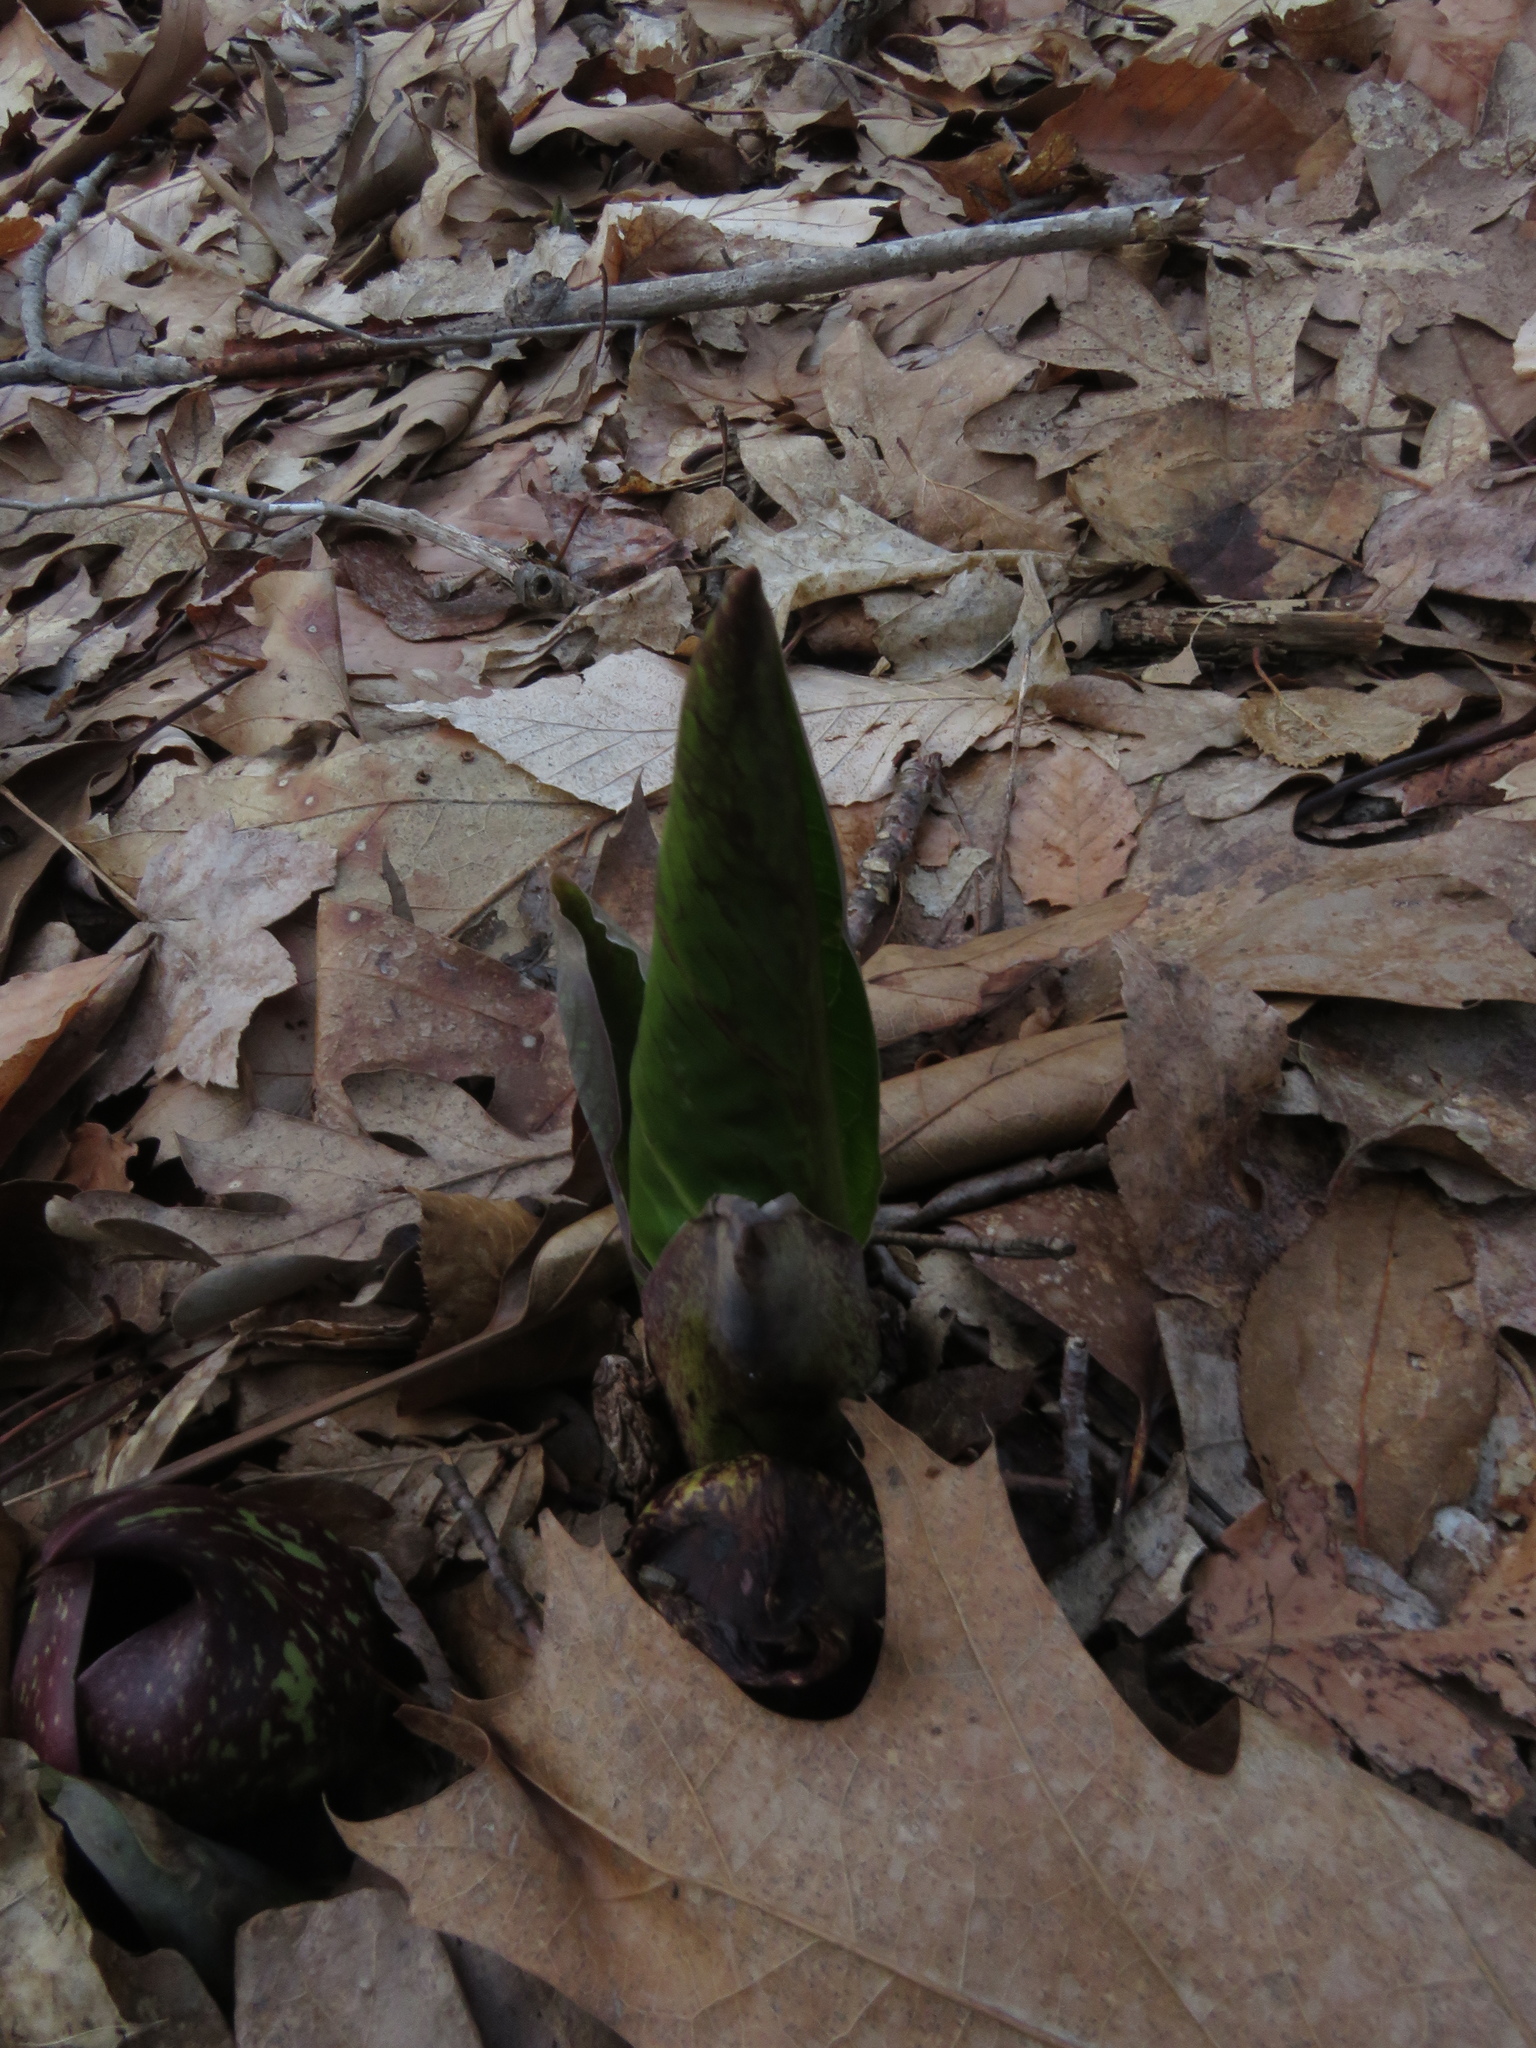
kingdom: Plantae
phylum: Tracheophyta
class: Liliopsida
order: Alismatales
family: Araceae
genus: Symplocarpus
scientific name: Symplocarpus foetidus
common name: Eastern skunk cabbage
